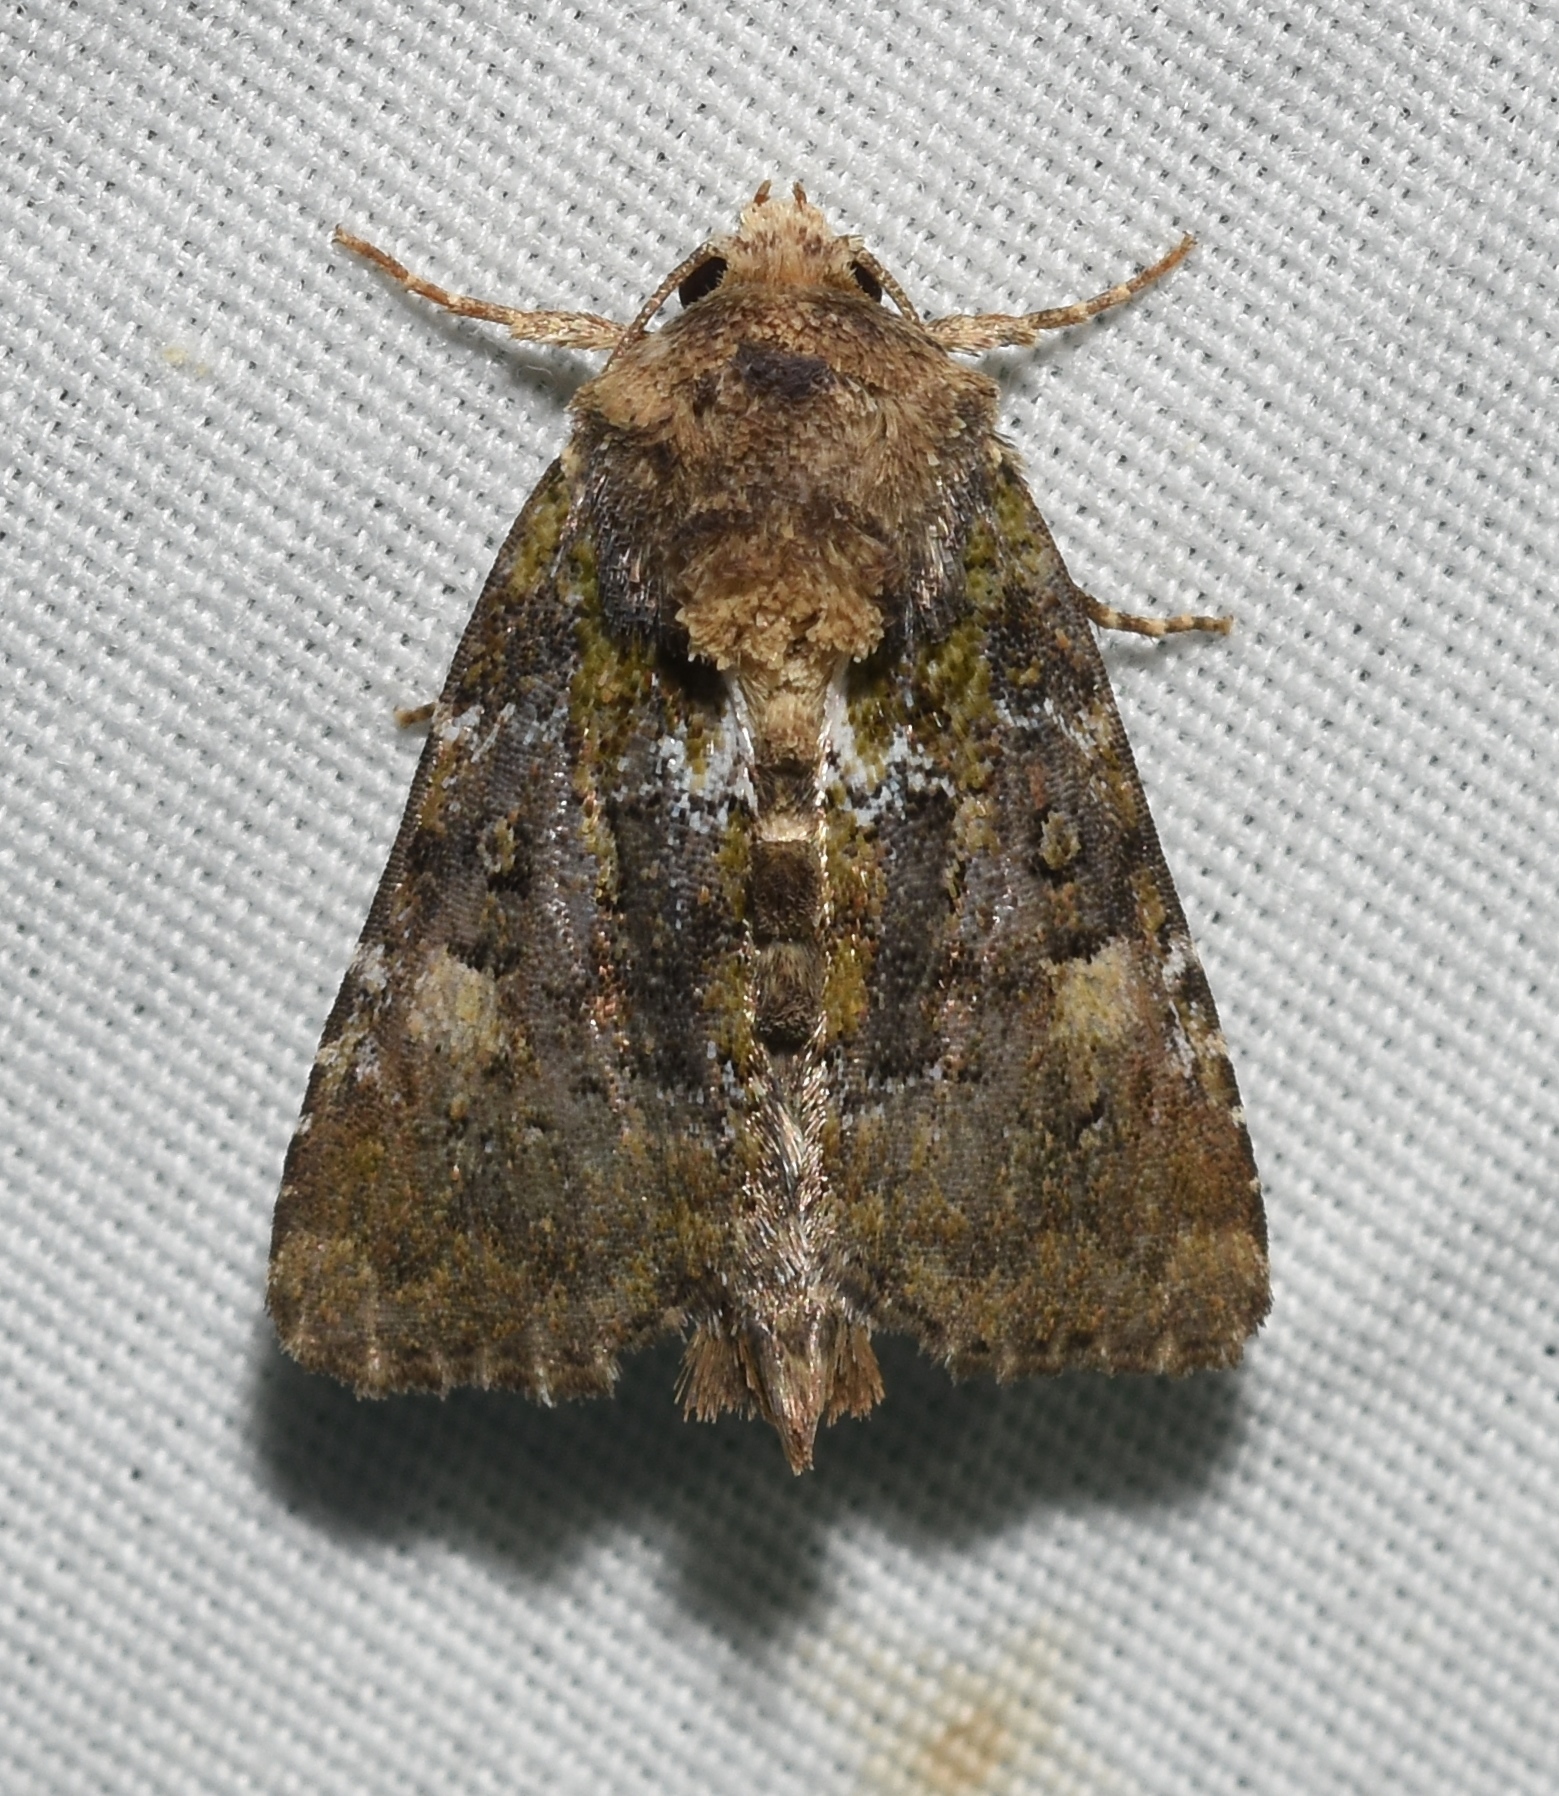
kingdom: Animalia
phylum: Arthropoda
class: Insecta
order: Lepidoptera
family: Noctuidae
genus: Oligia
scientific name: Oligia chlorostigma
